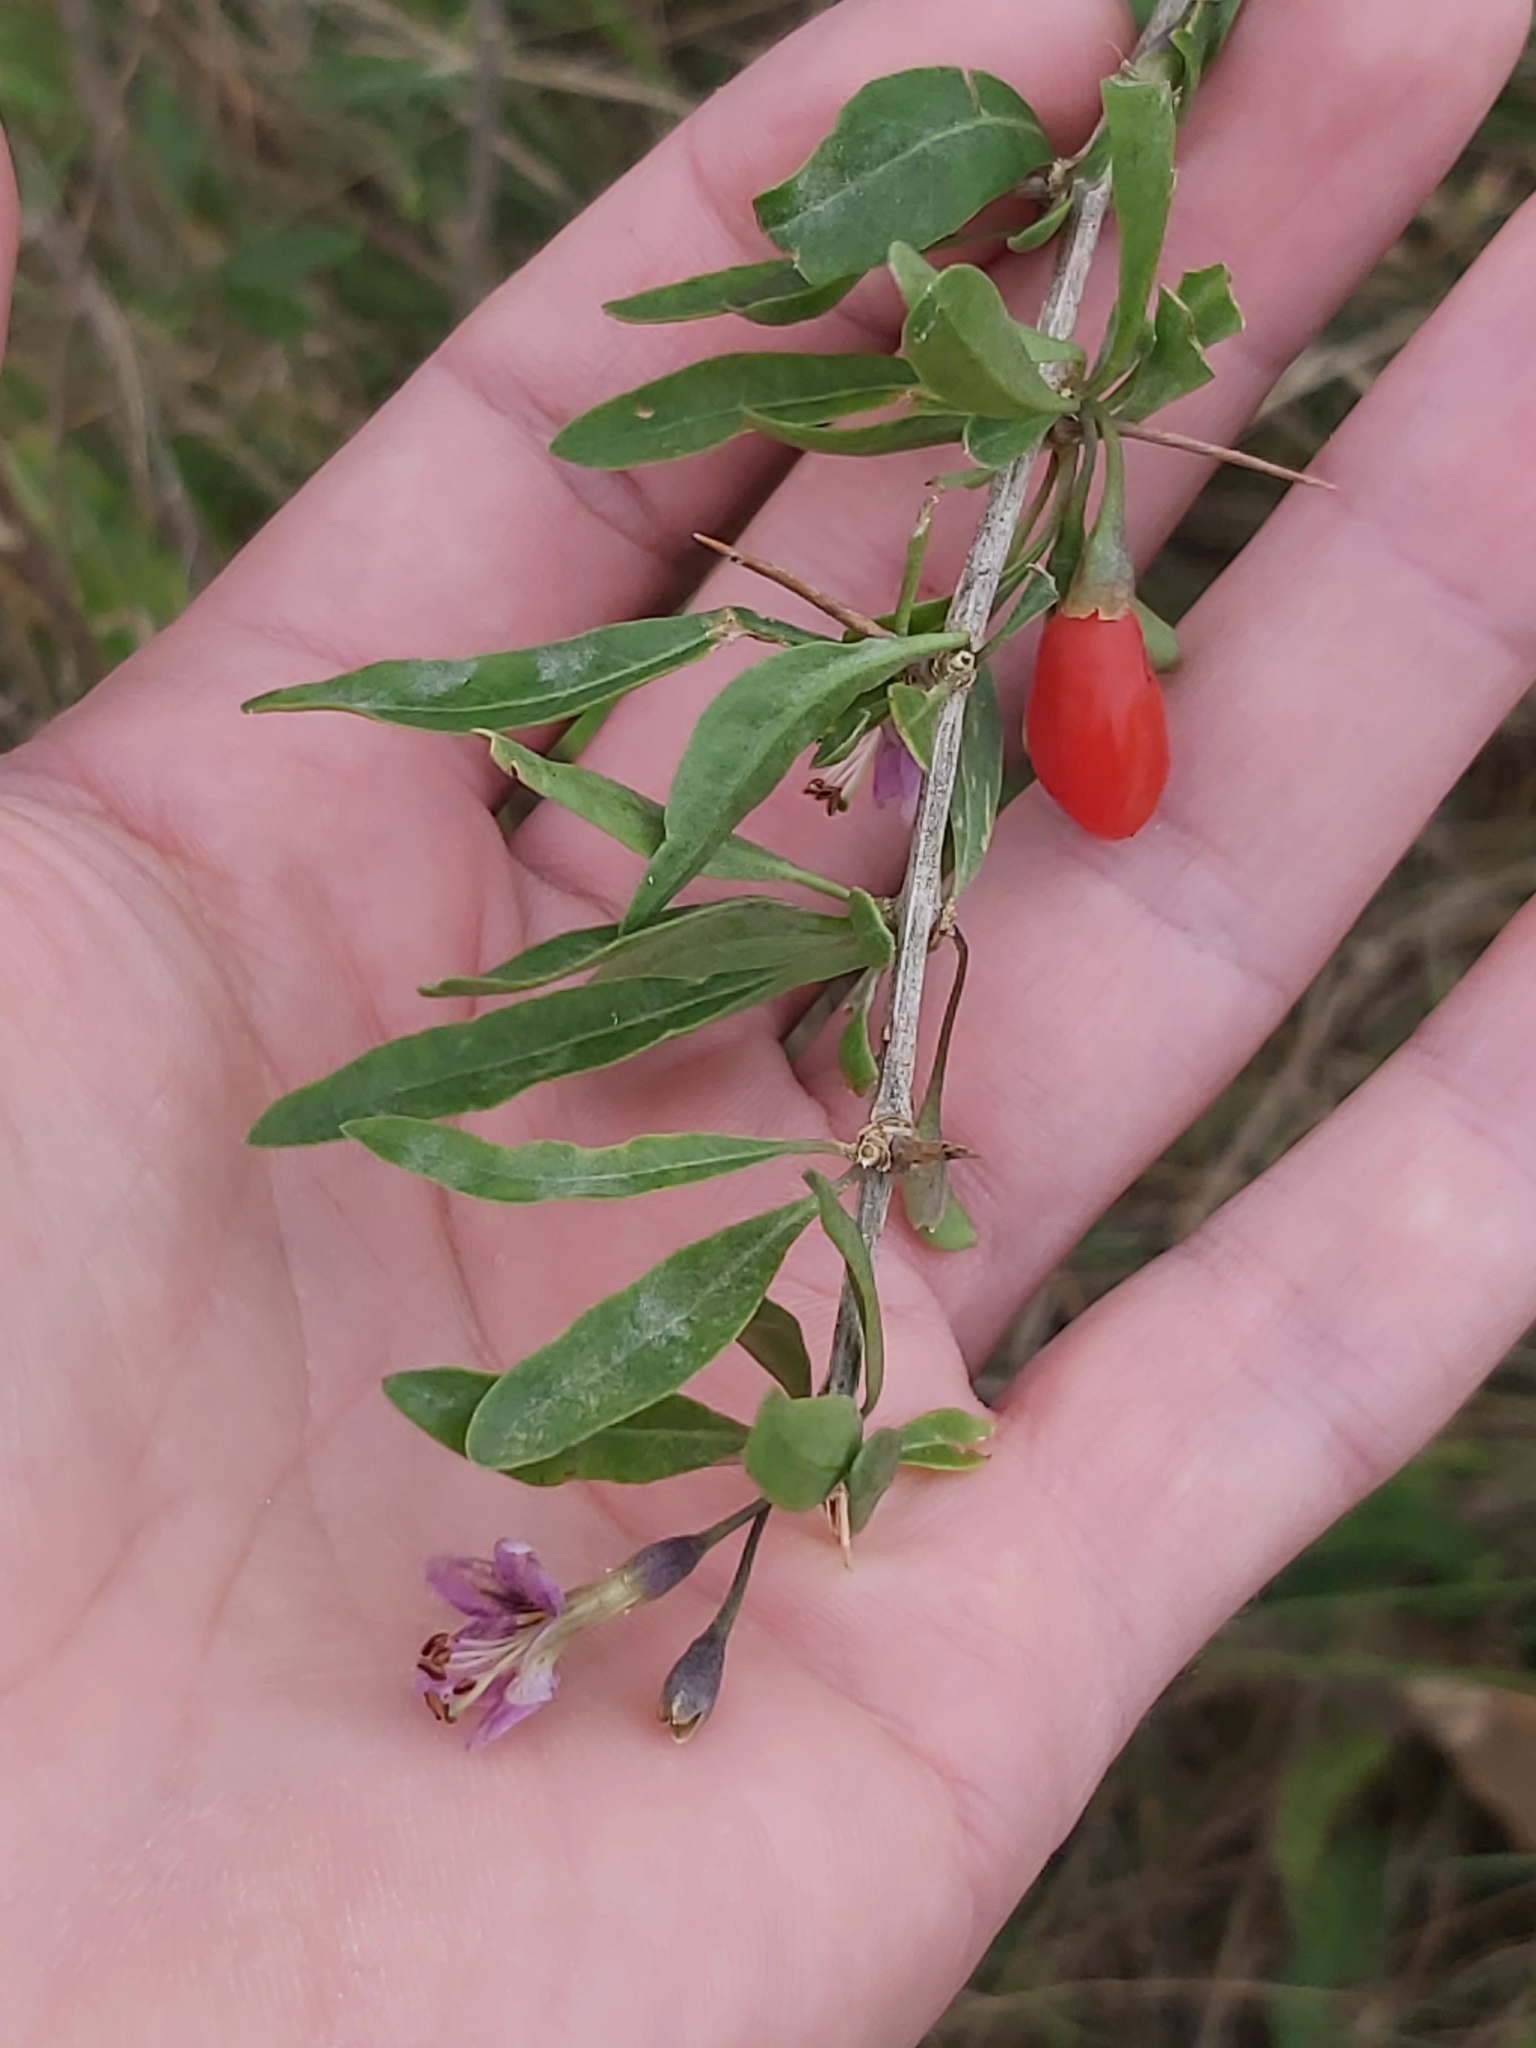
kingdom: Plantae
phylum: Tracheophyta
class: Magnoliopsida
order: Solanales
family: Solanaceae
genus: Lycium
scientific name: Lycium barbarum
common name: Duke of argyll's teaplant
